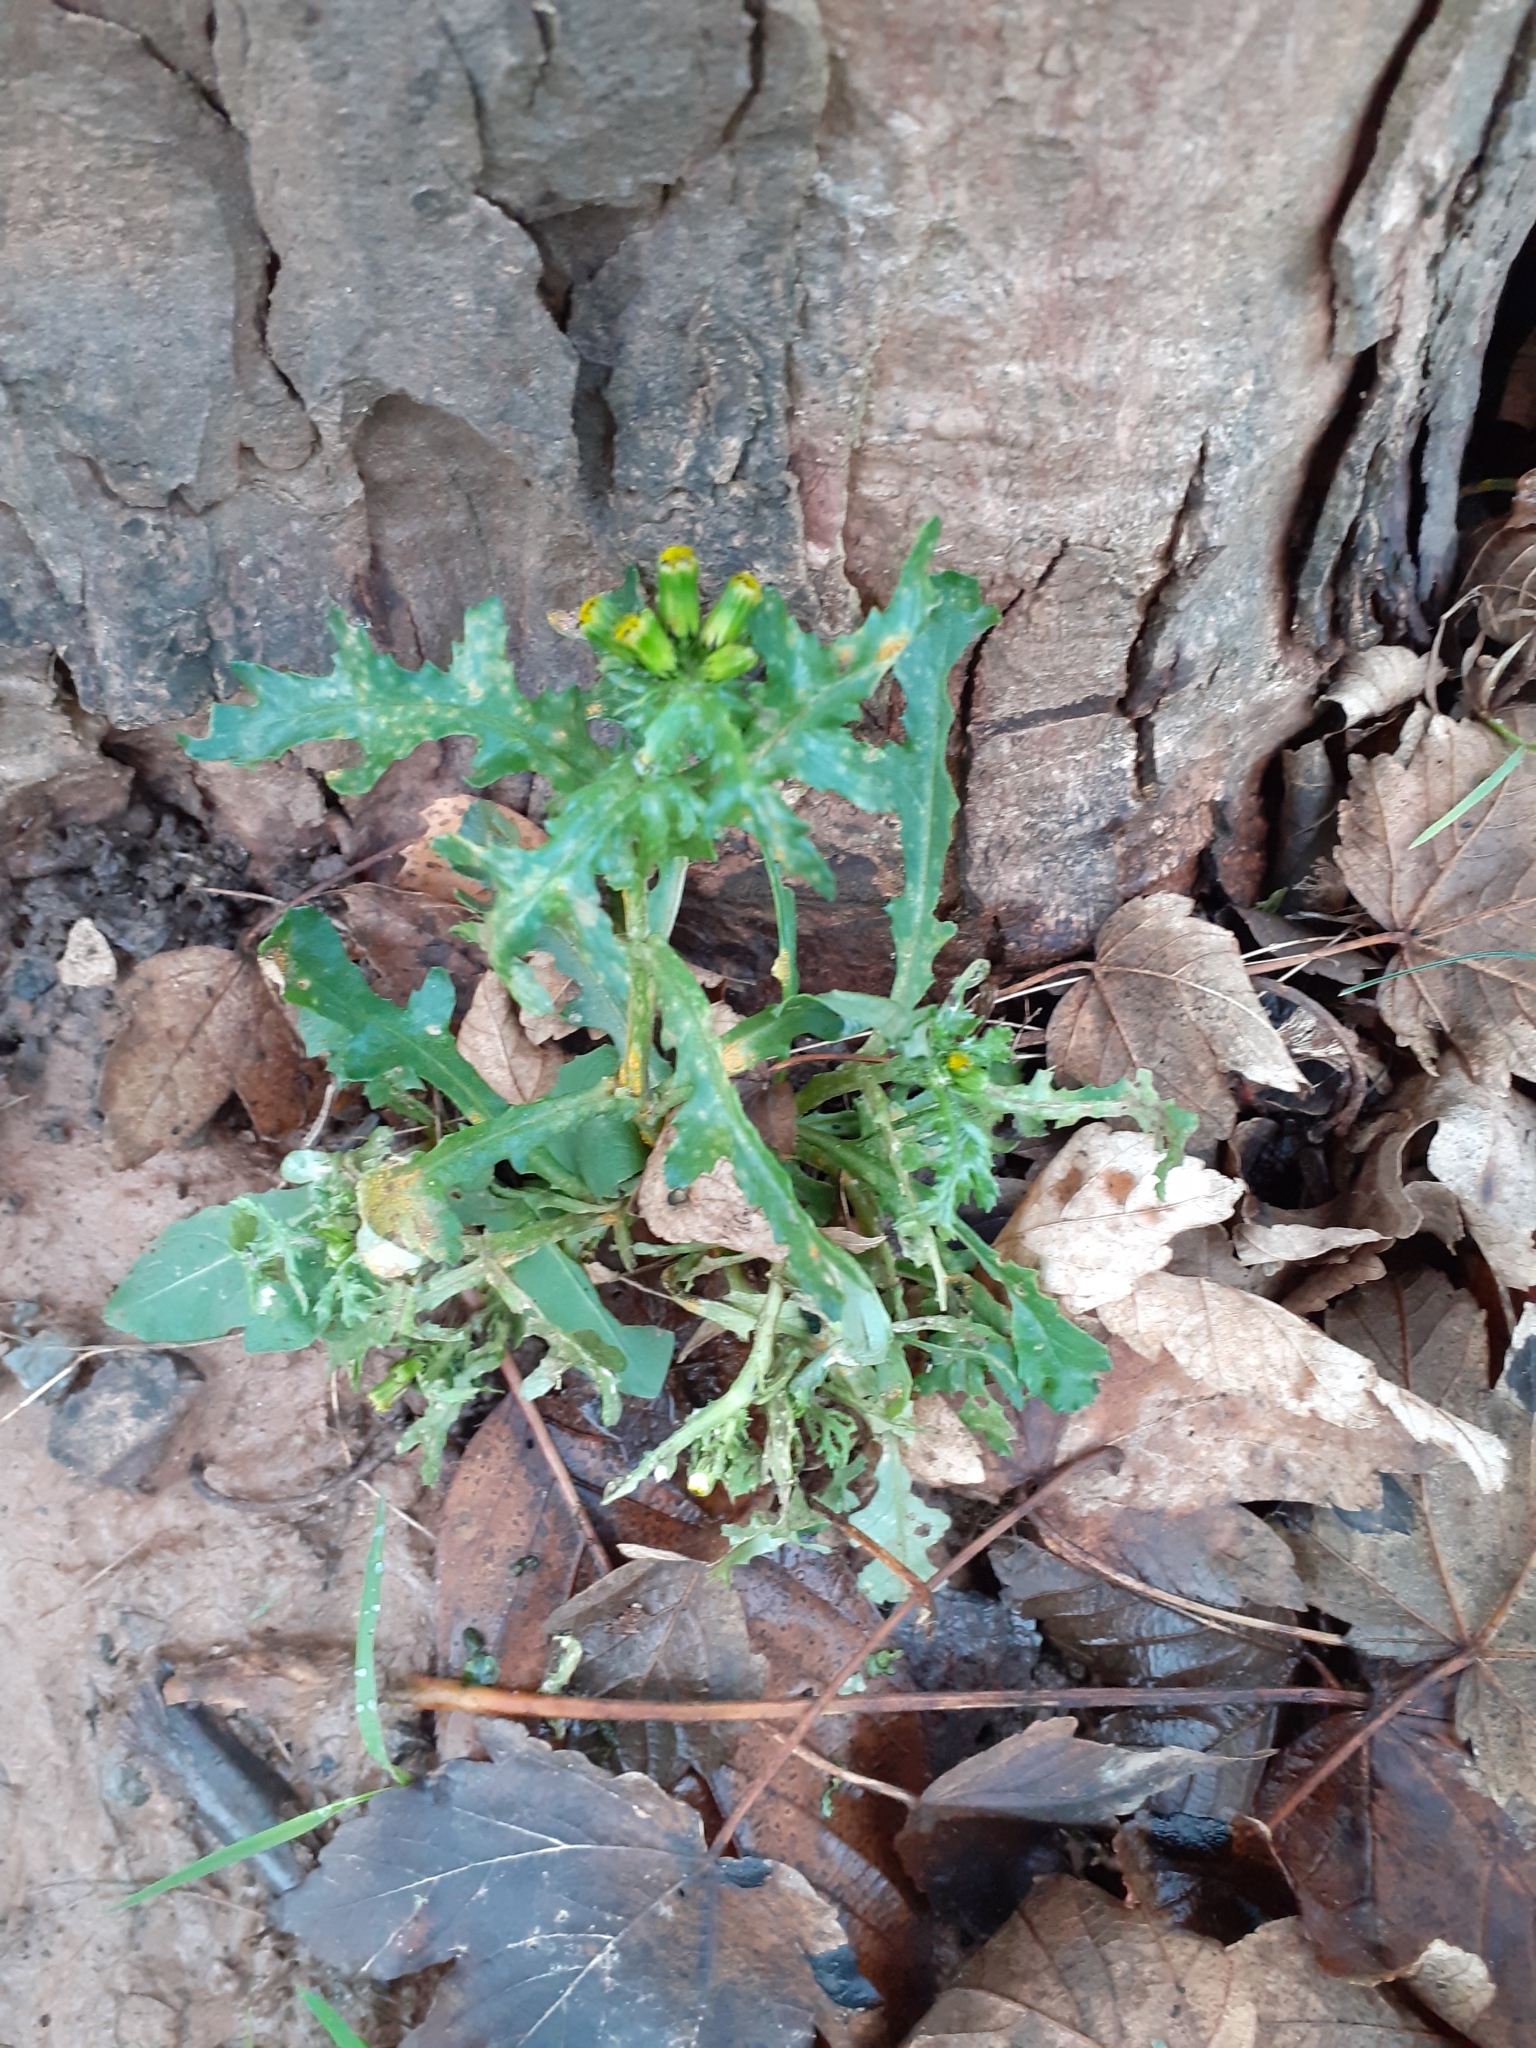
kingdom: Plantae
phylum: Tracheophyta
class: Magnoliopsida
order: Asterales
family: Asteraceae
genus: Senecio
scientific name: Senecio vulgaris
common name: Old-man-in-the-spring
